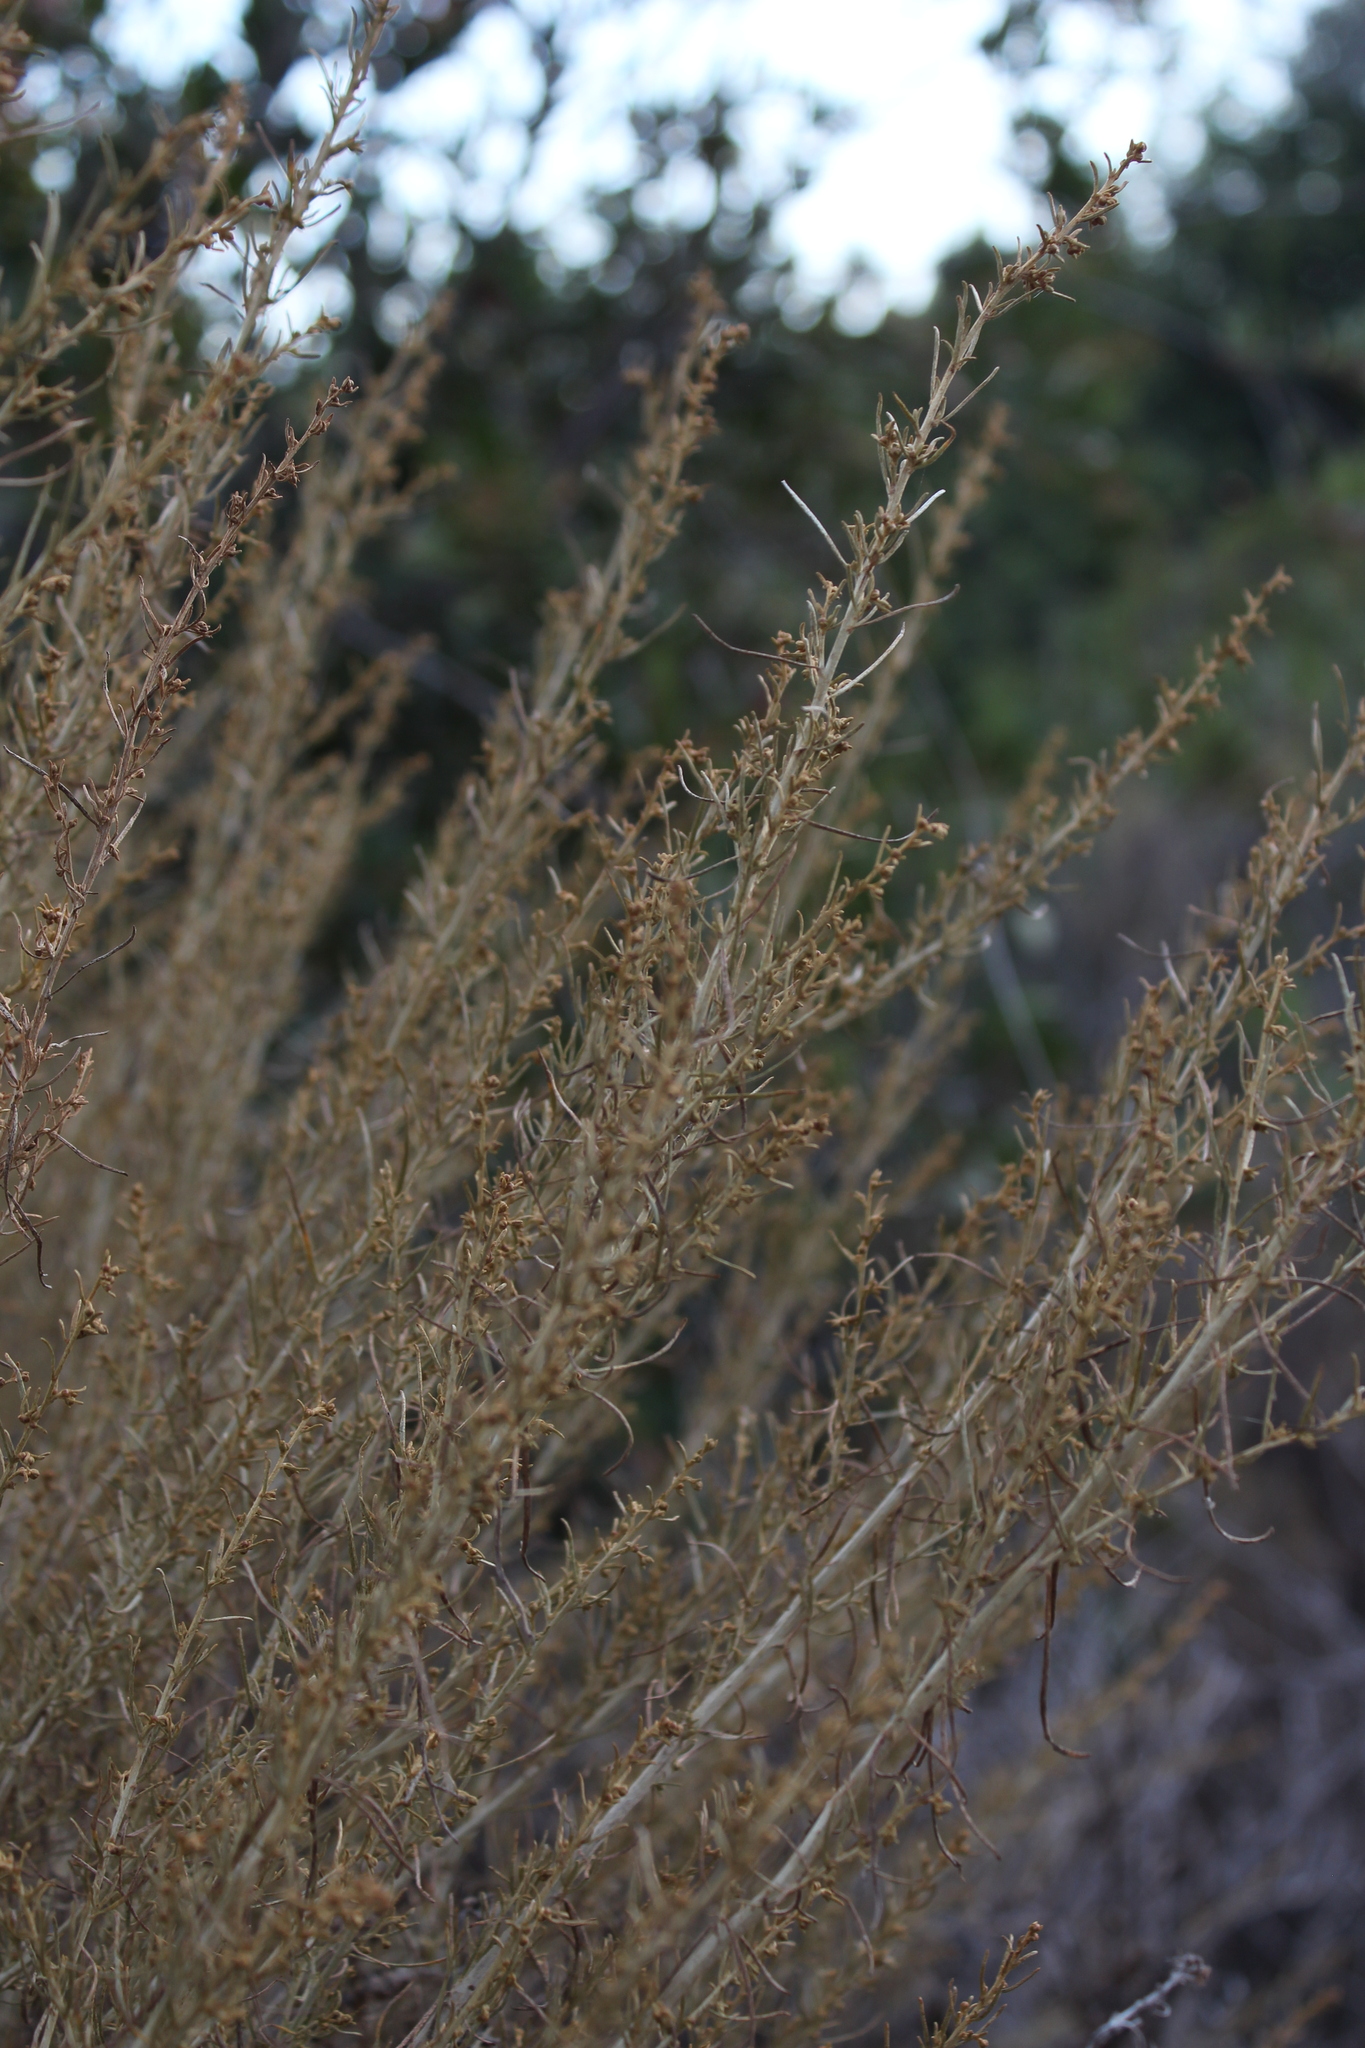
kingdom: Plantae
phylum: Tracheophyta
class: Magnoliopsida
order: Asterales
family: Asteraceae
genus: Artemisia
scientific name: Artemisia californica
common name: California sagebrush
